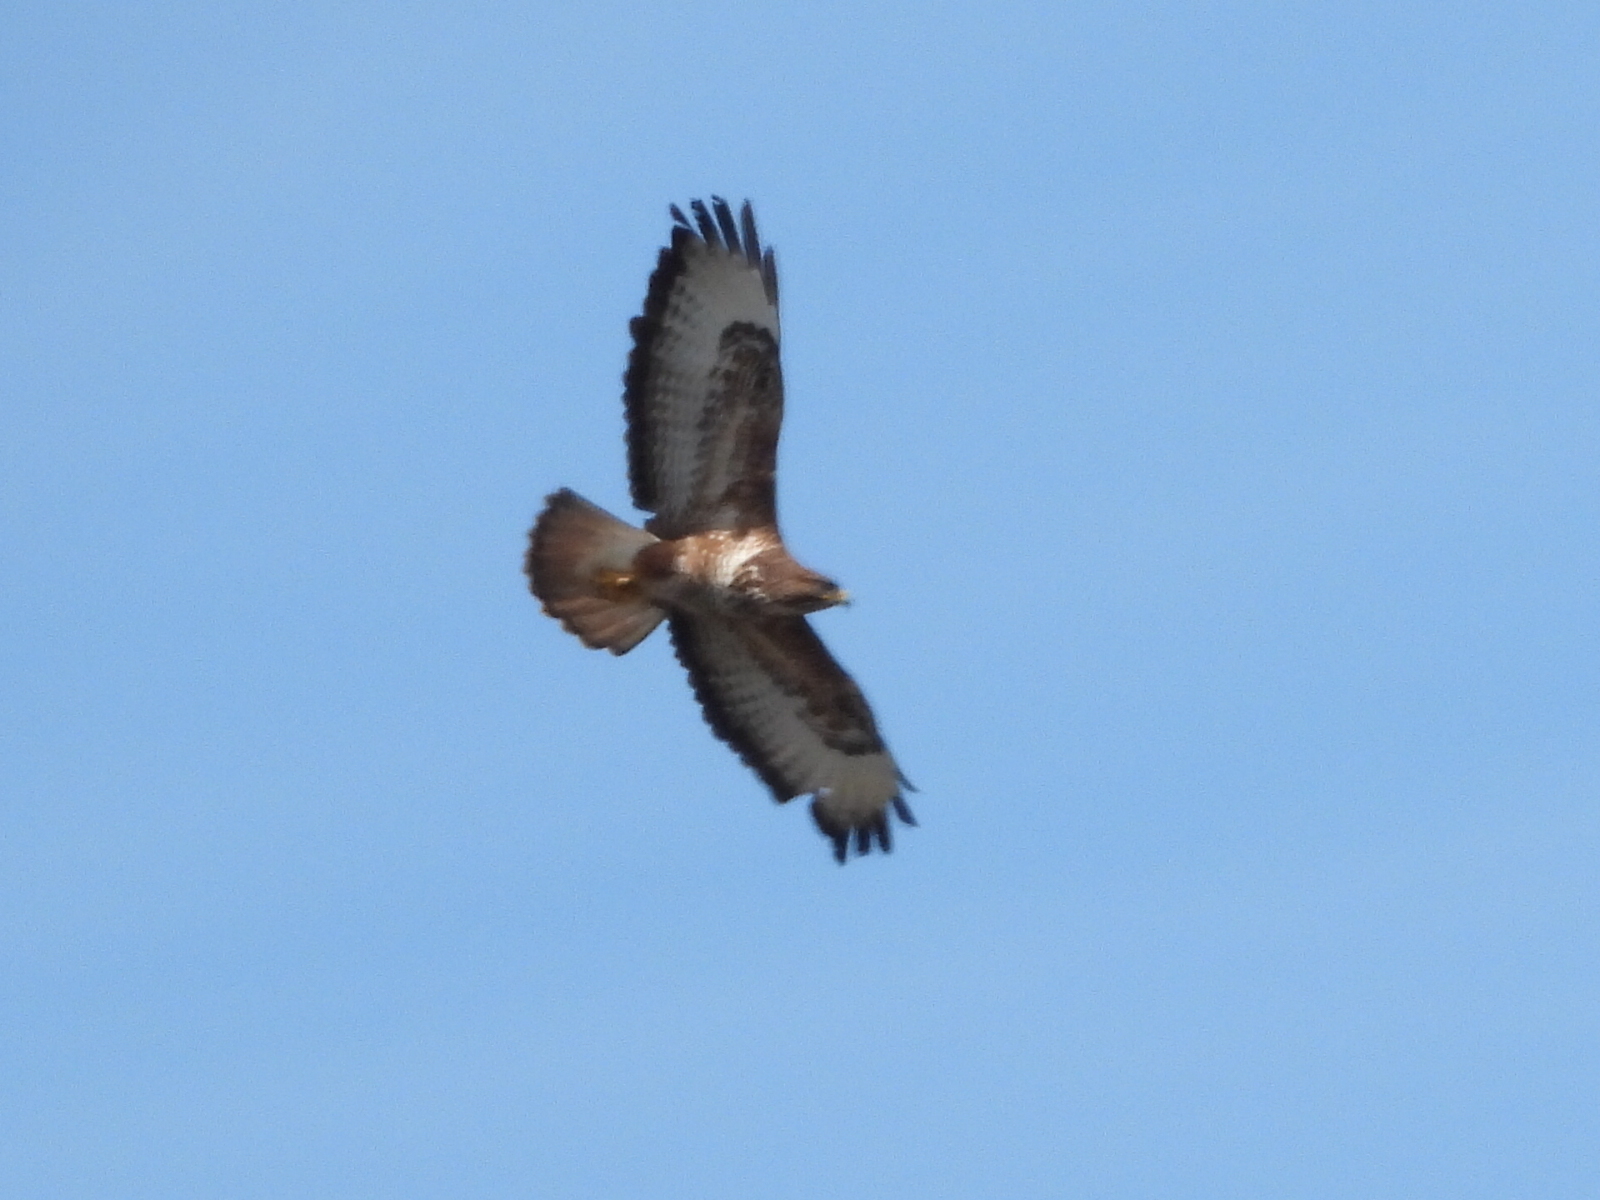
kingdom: Animalia
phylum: Chordata
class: Aves
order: Accipitriformes
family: Accipitridae
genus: Buteo
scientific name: Buteo buteo
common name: Common buzzard
